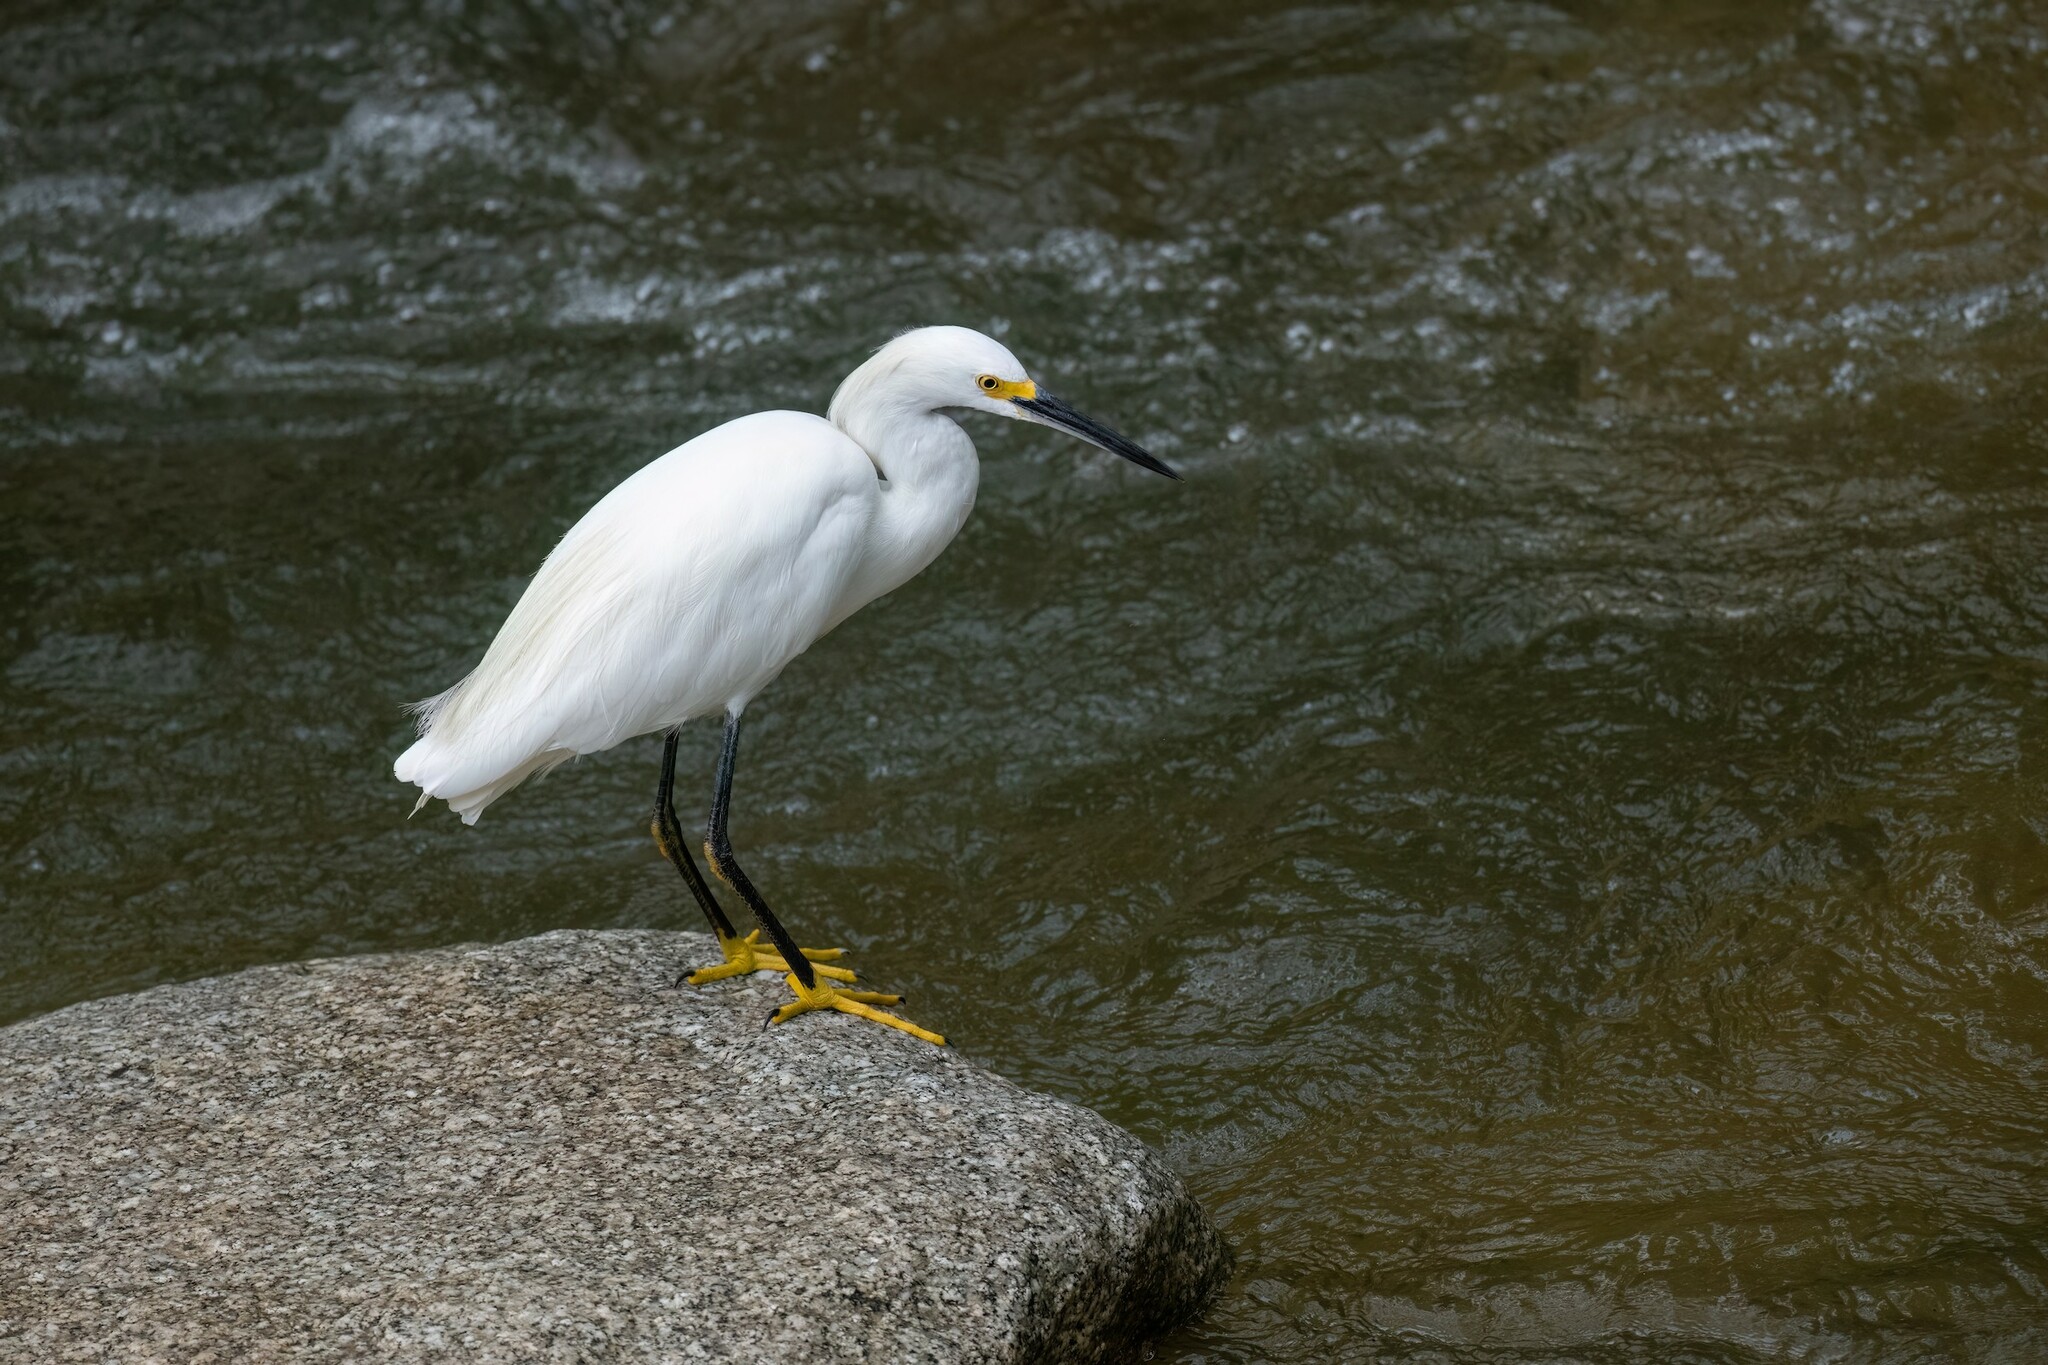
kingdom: Animalia
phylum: Chordata
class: Aves
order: Pelecaniformes
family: Ardeidae
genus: Egretta
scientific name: Egretta thula
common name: Snowy egret
